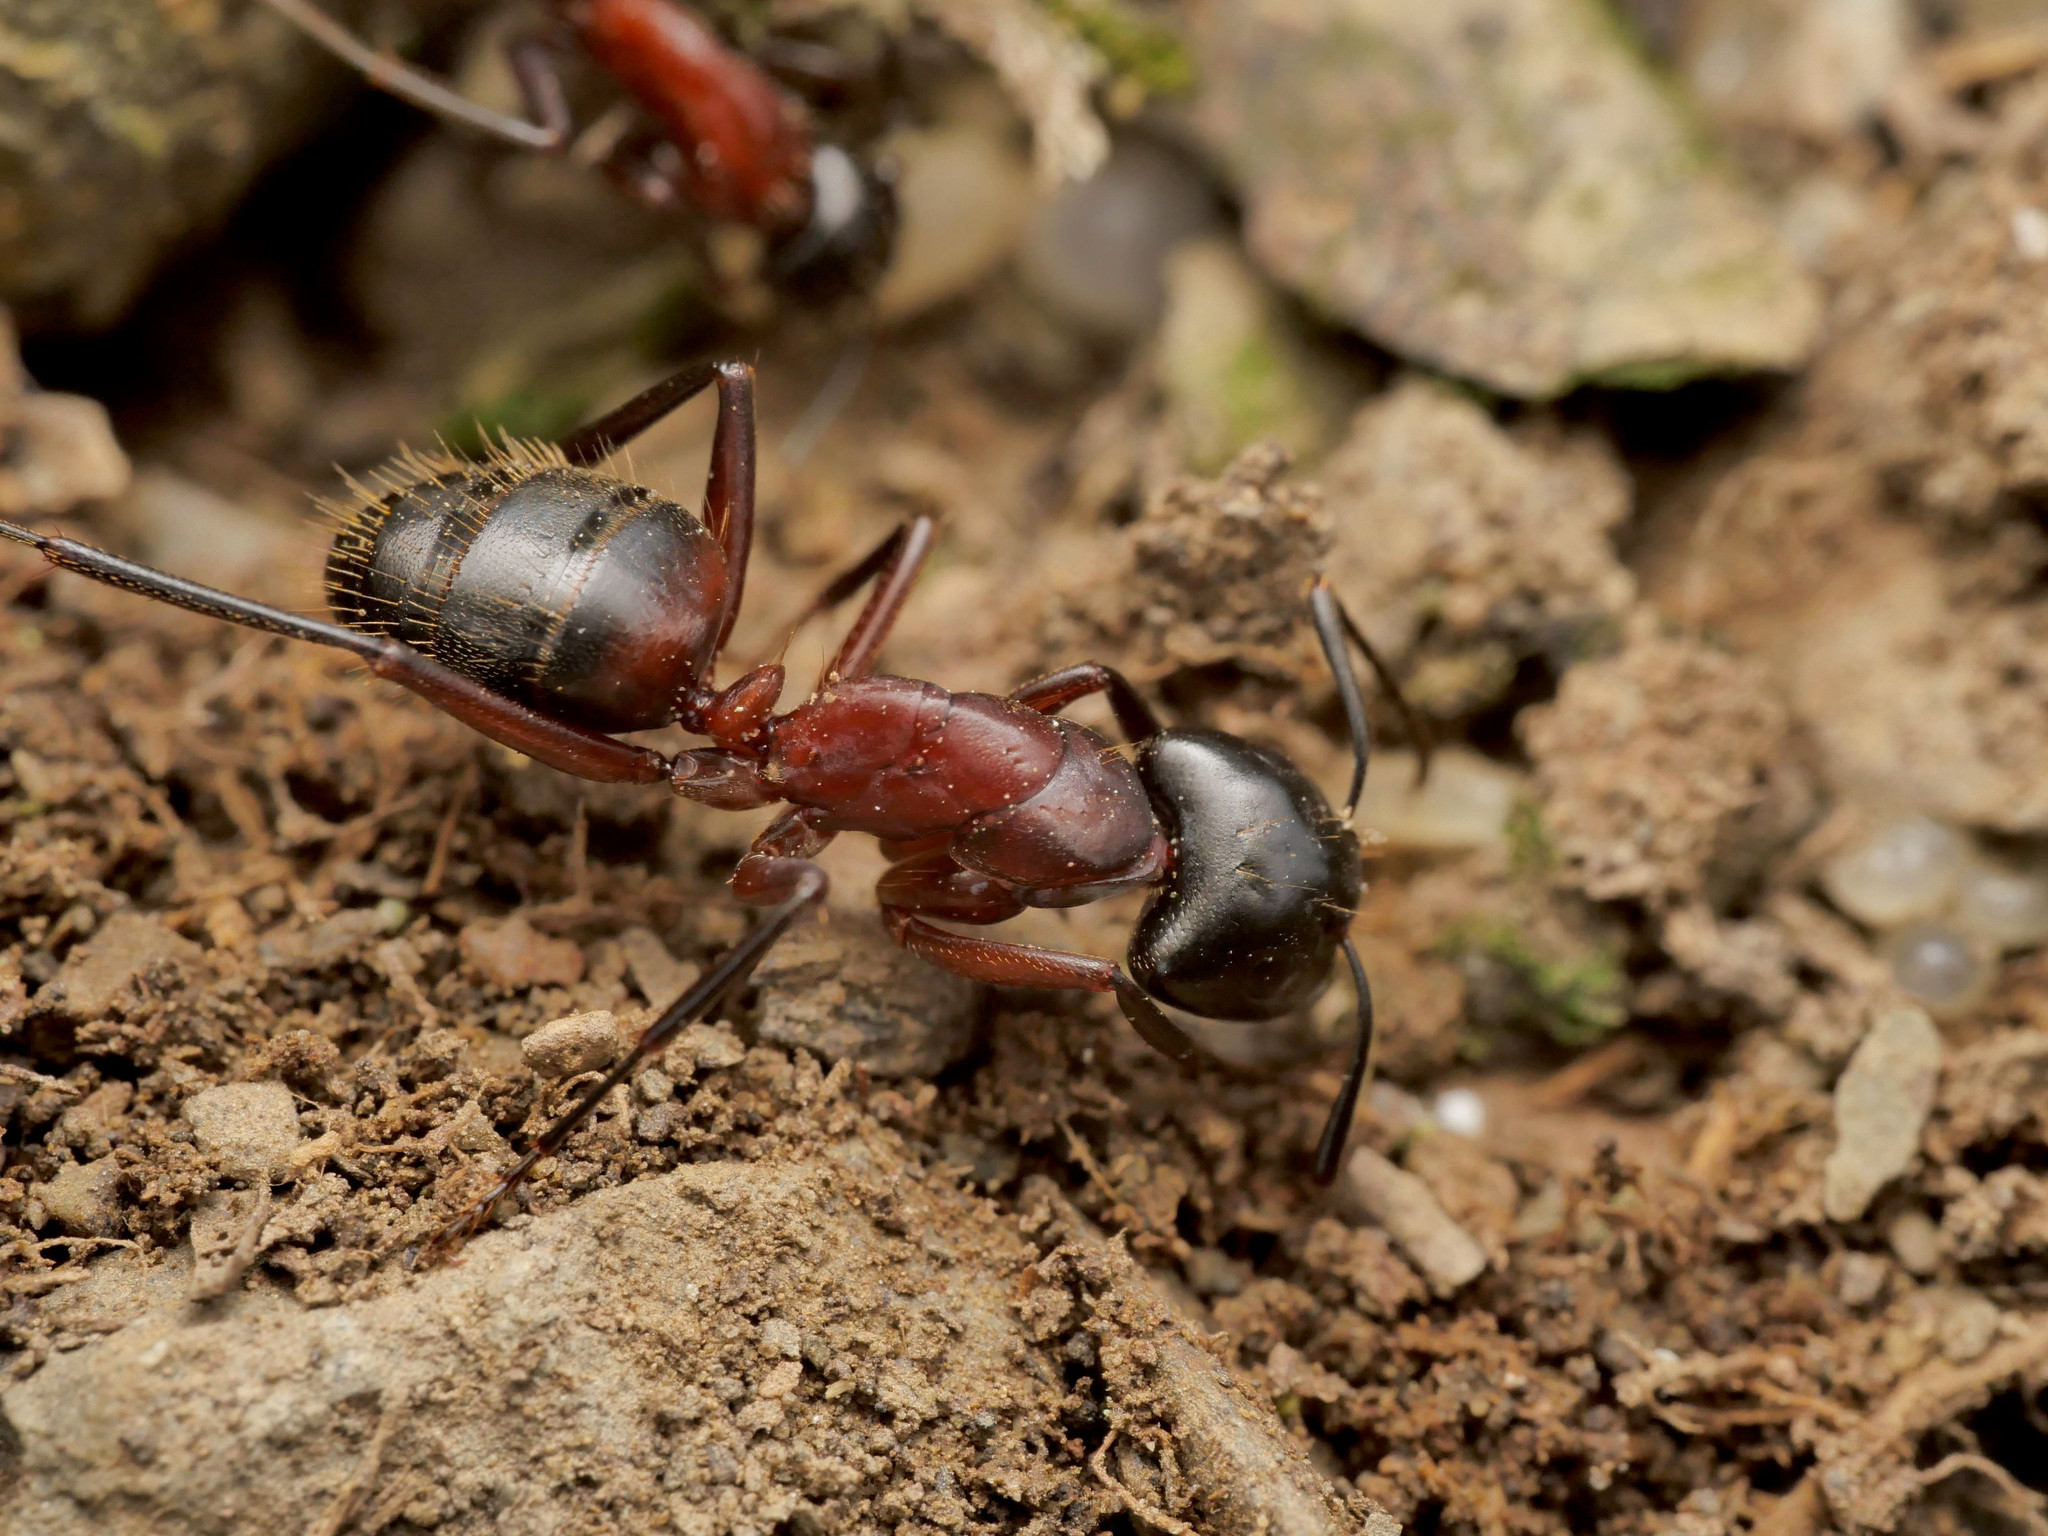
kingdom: Animalia
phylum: Arthropoda
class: Insecta
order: Hymenoptera
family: Formicidae
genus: Camponotus
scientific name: Camponotus ligniperdus
